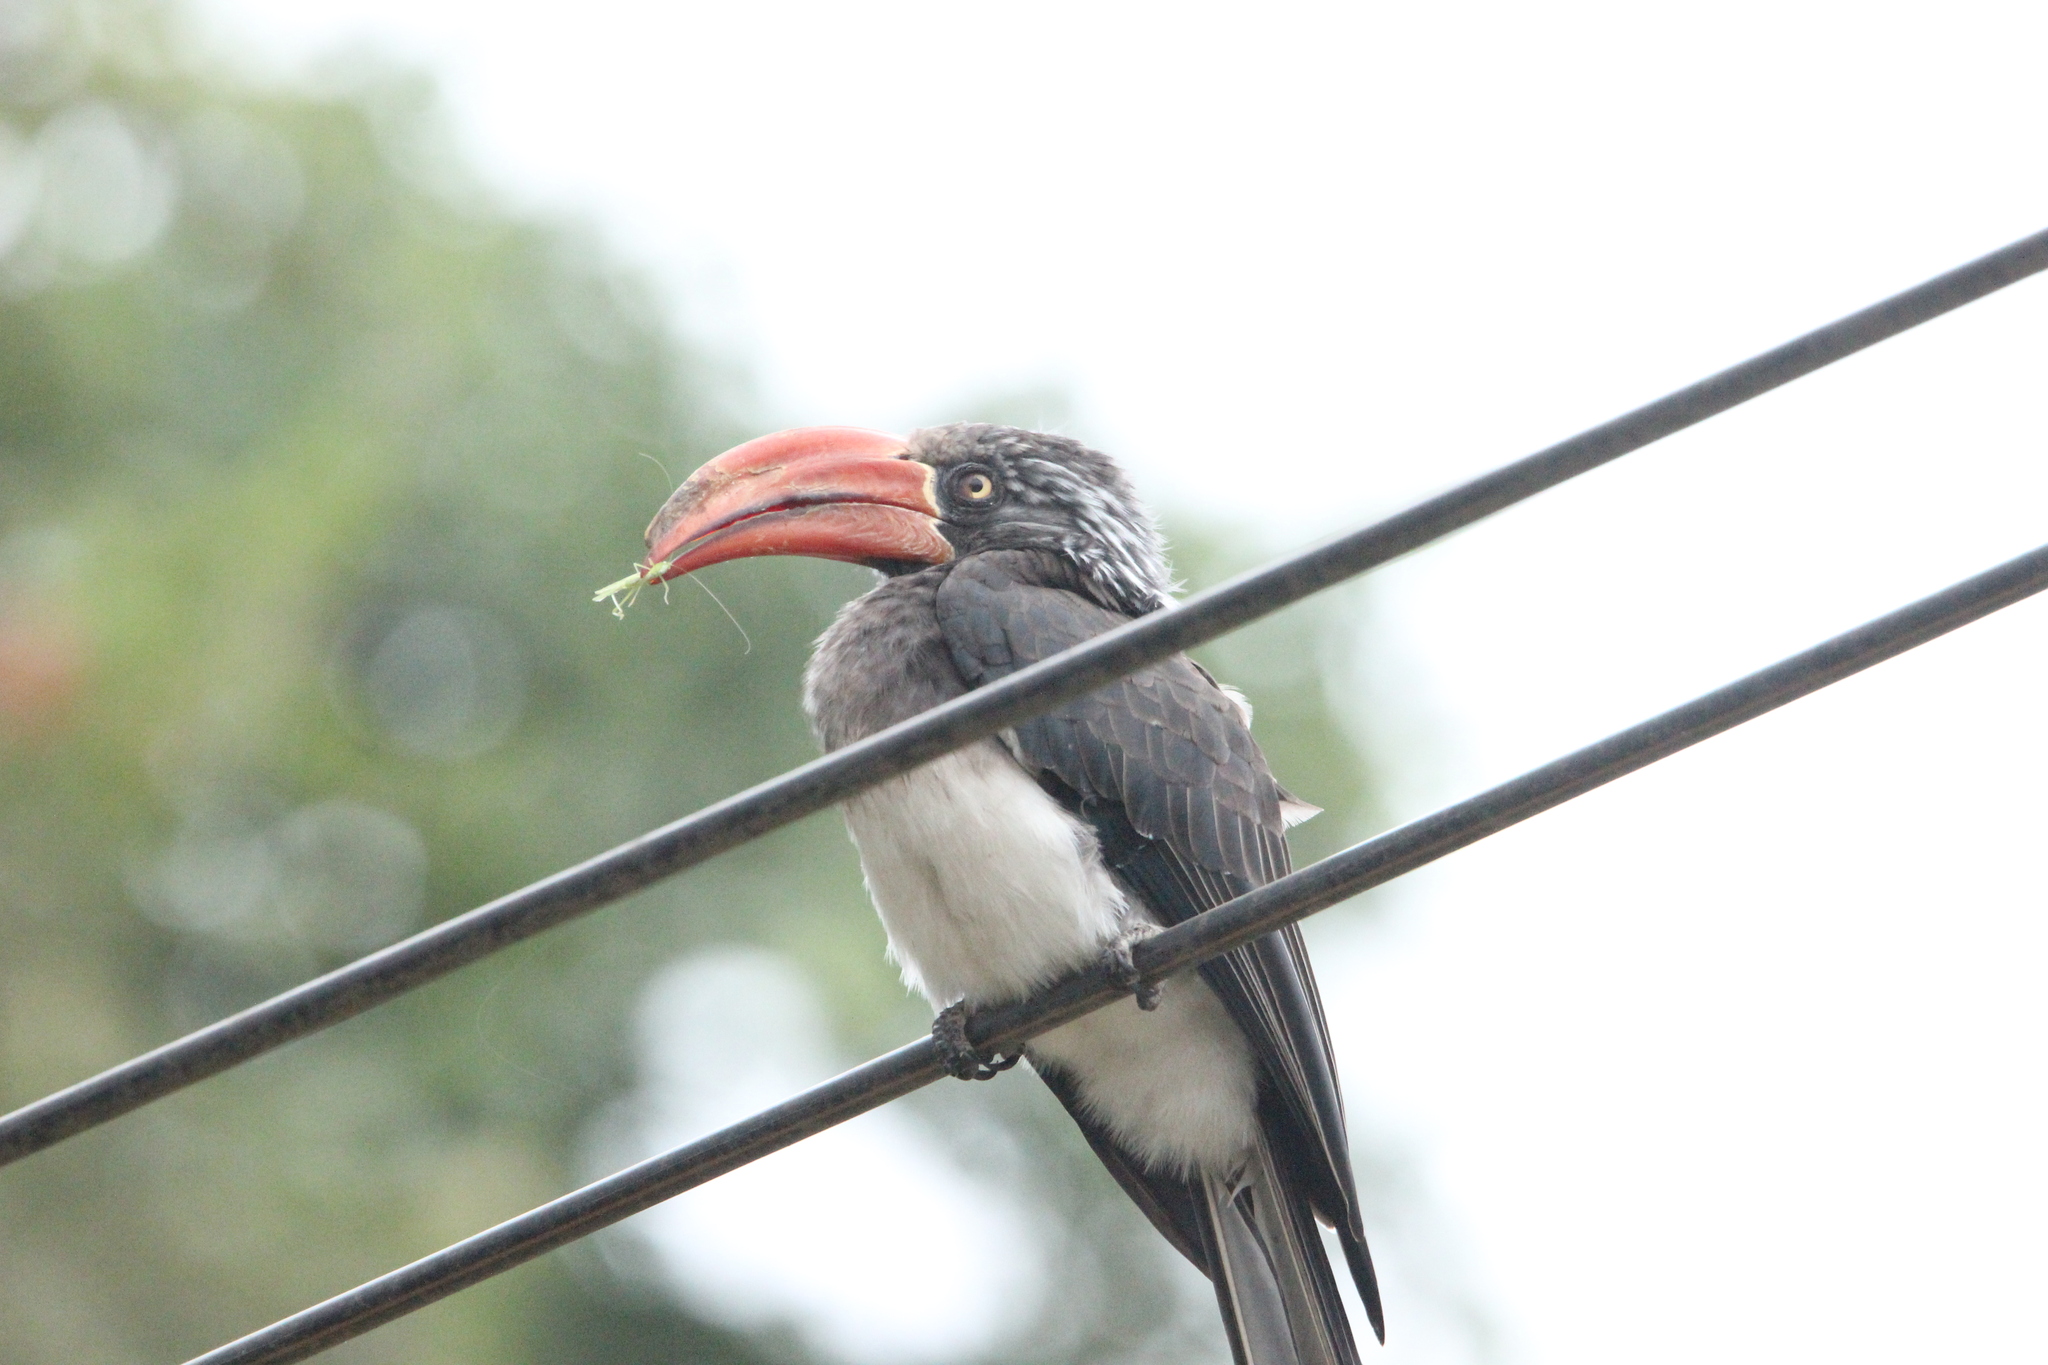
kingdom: Animalia
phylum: Chordata
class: Aves
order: Bucerotiformes
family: Bucerotidae
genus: Lophoceros
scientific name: Lophoceros alboterminatus
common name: Crowned hornbill
